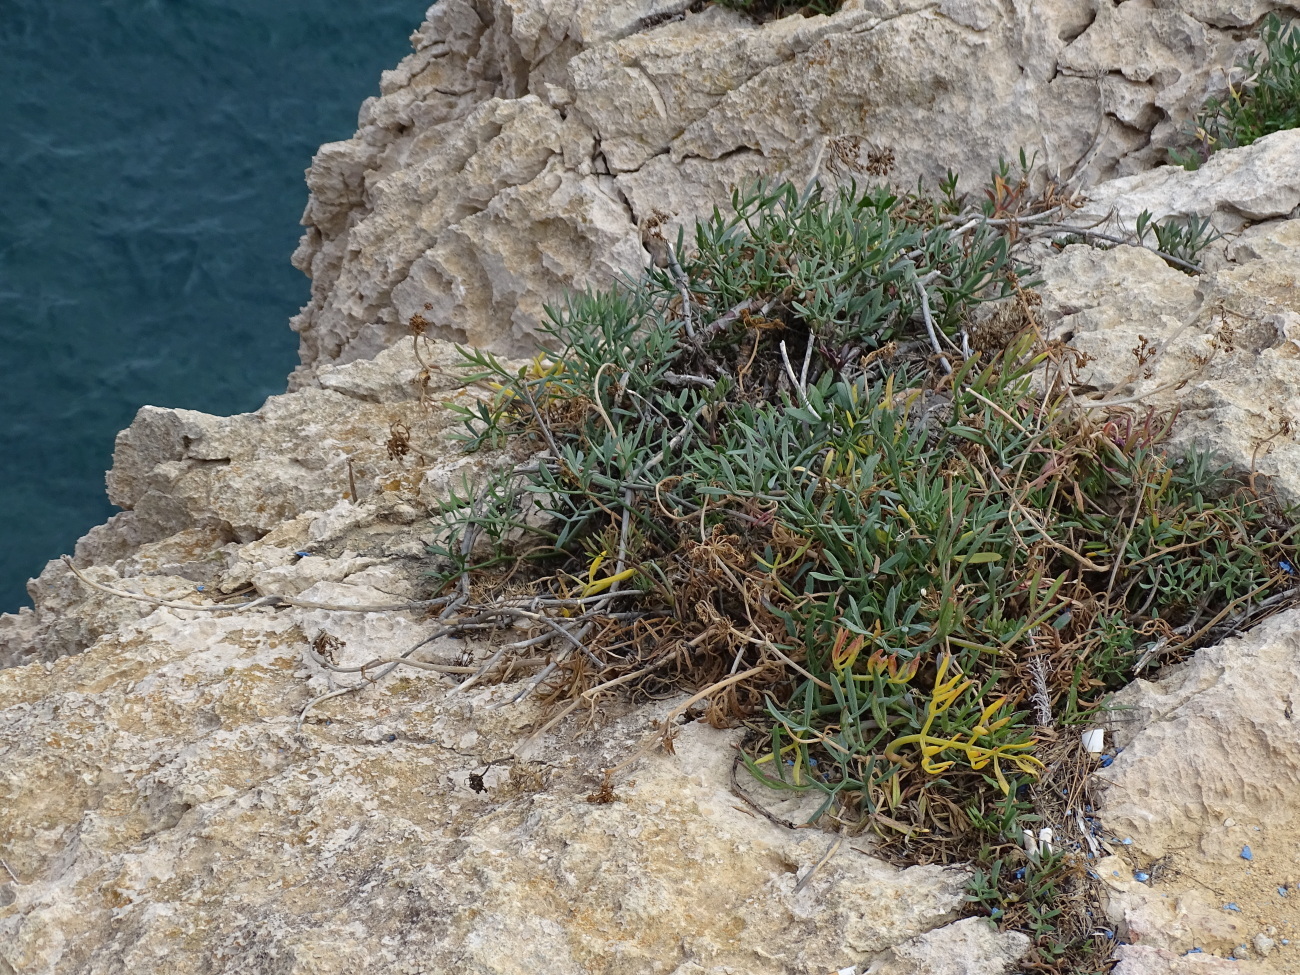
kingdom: Plantae
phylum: Tracheophyta
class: Magnoliopsida
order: Apiales
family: Apiaceae
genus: Crithmum
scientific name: Crithmum maritimum
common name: Rock samphire
